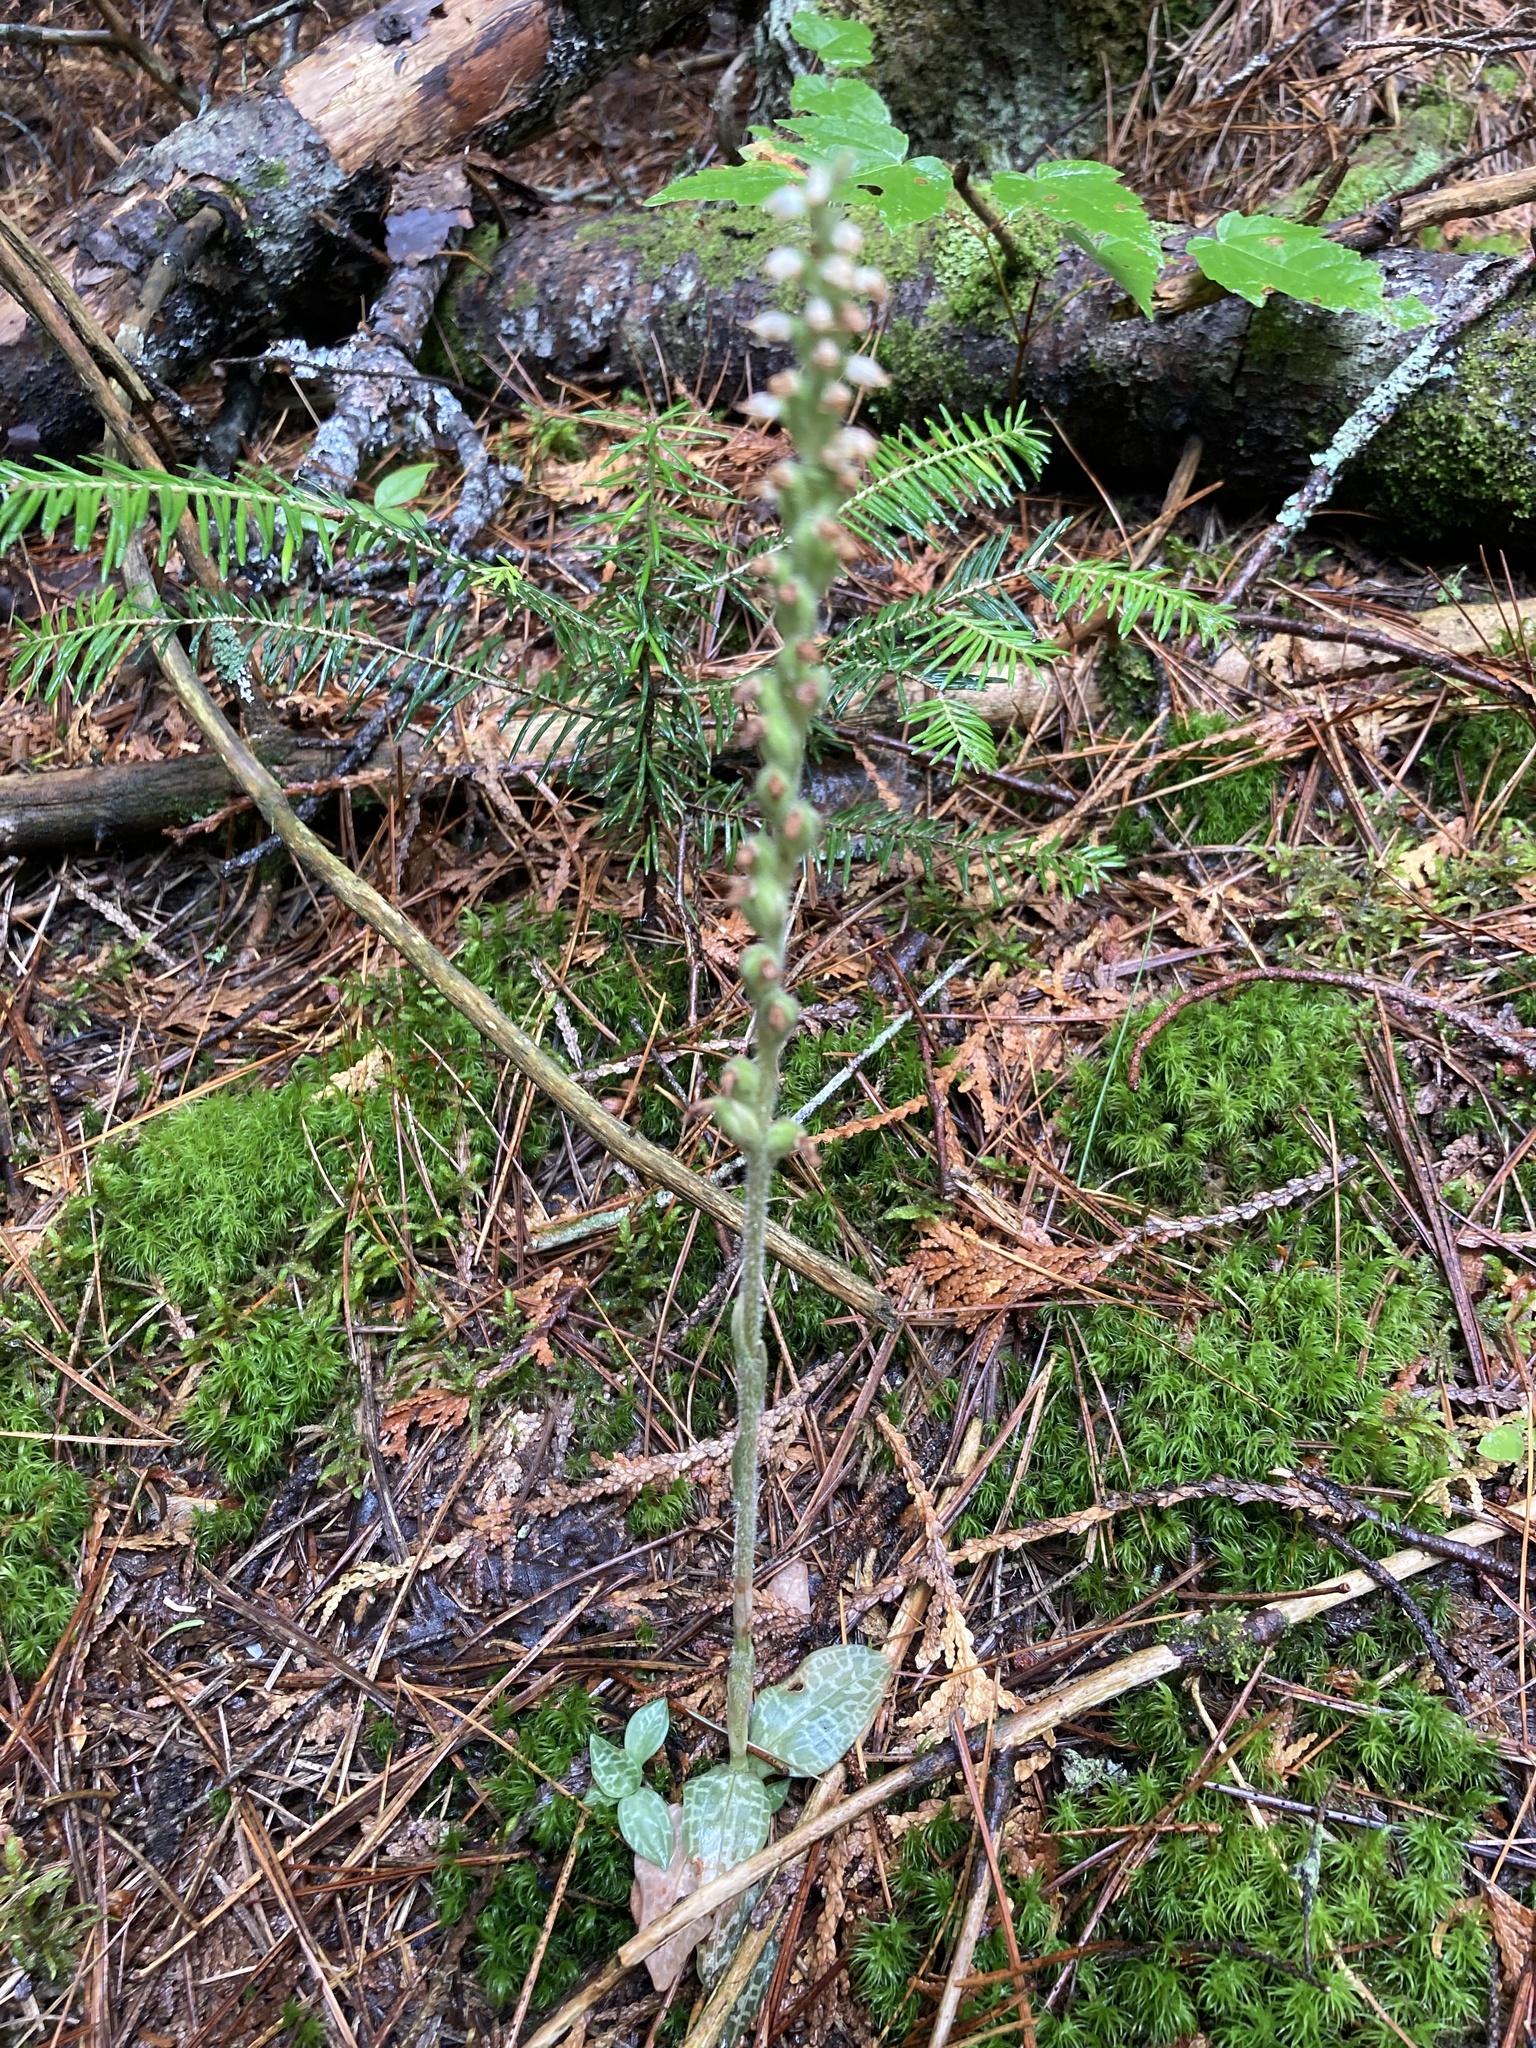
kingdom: Plantae
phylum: Tracheophyta
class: Liliopsida
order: Asparagales
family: Orchidaceae
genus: Goodyera
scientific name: Goodyera tesselata
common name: Checkered rattlesnake-plantain
